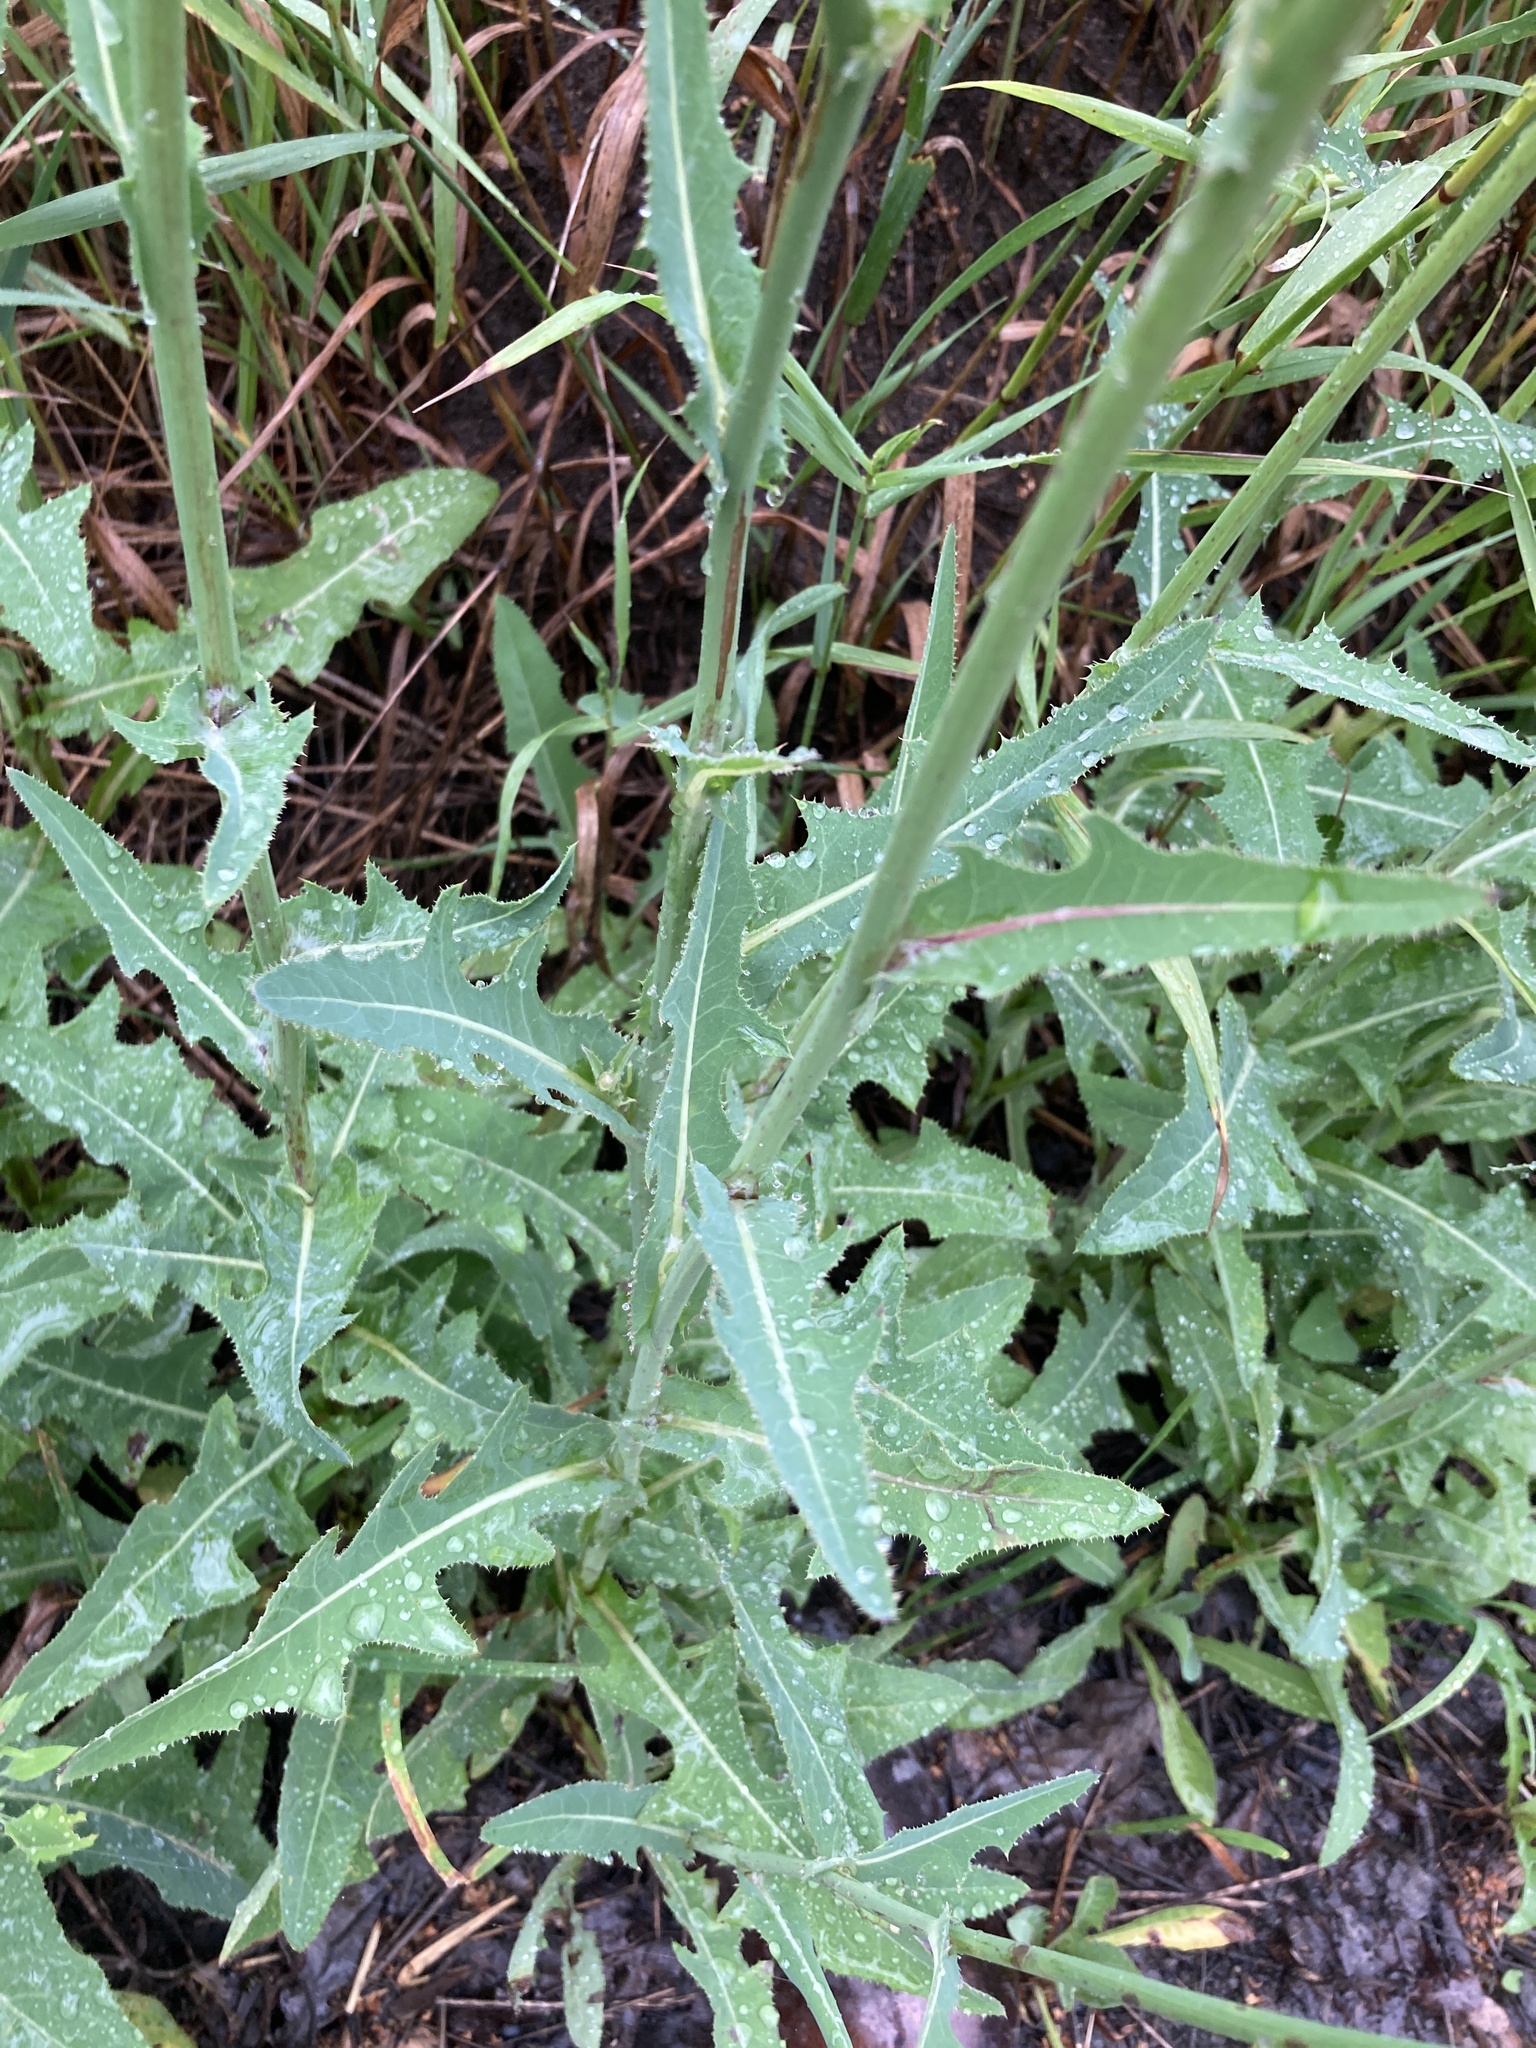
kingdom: Plantae
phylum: Tracheophyta
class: Magnoliopsida
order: Asterales
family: Asteraceae
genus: Sonchus
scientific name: Sonchus arvensis
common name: Perennial sow-thistle
